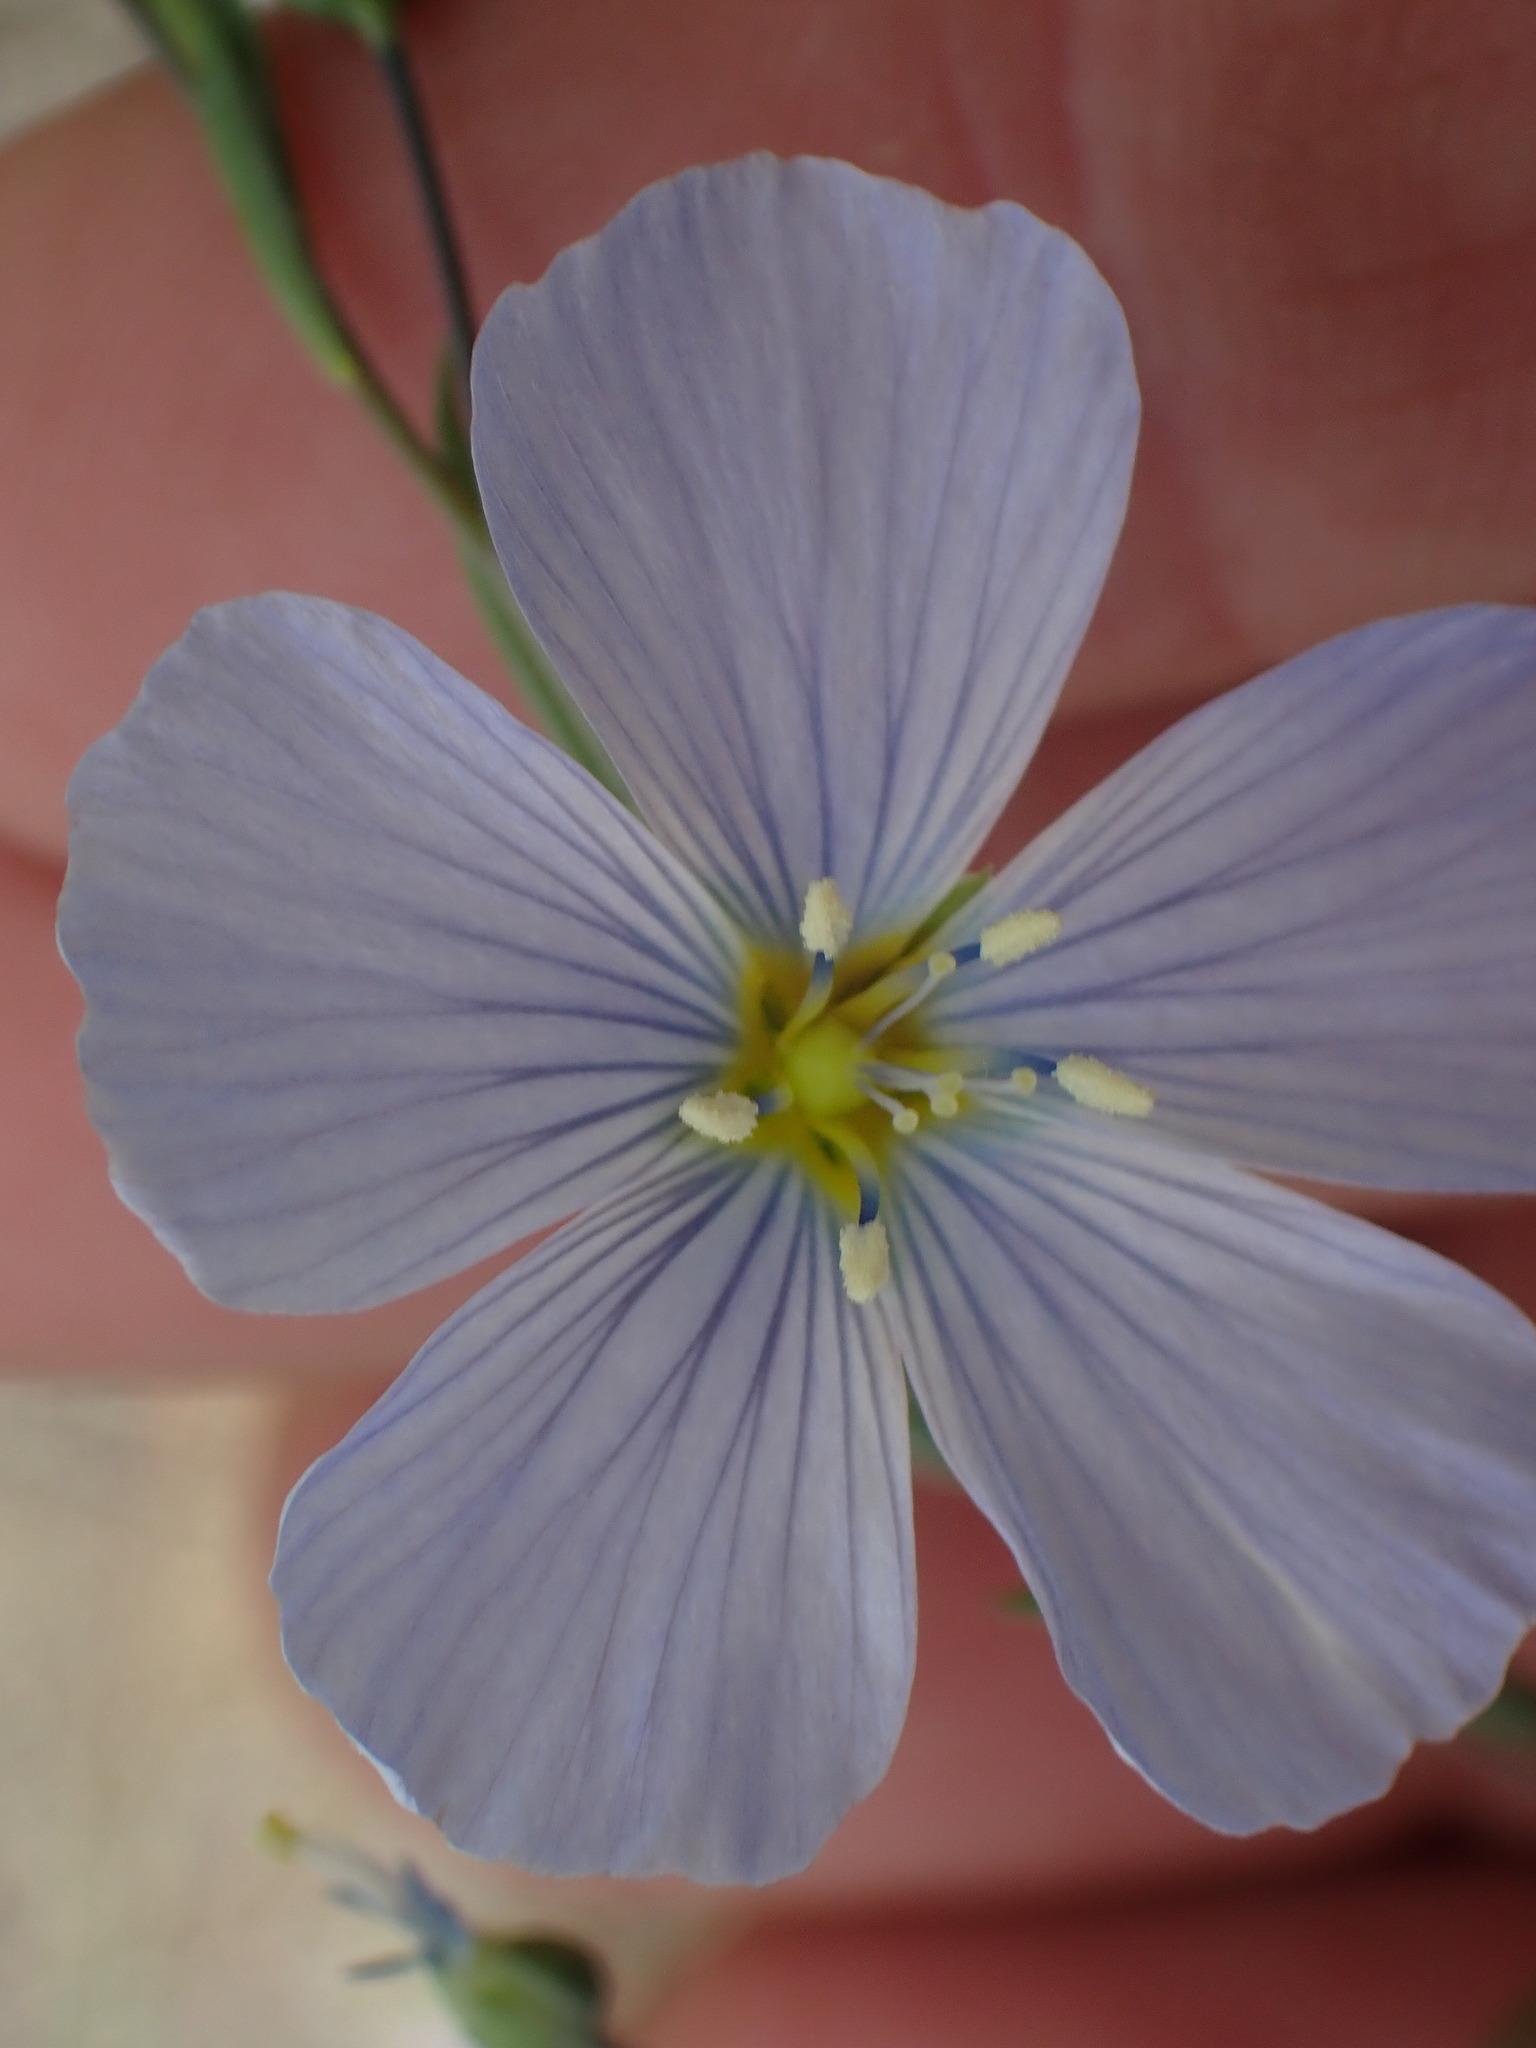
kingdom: Plantae
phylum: Tracheophyta
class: Magnoliopsida
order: Malpighiales
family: Linaceae
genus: Linum
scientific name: Linum lewisii
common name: Prairie flax
